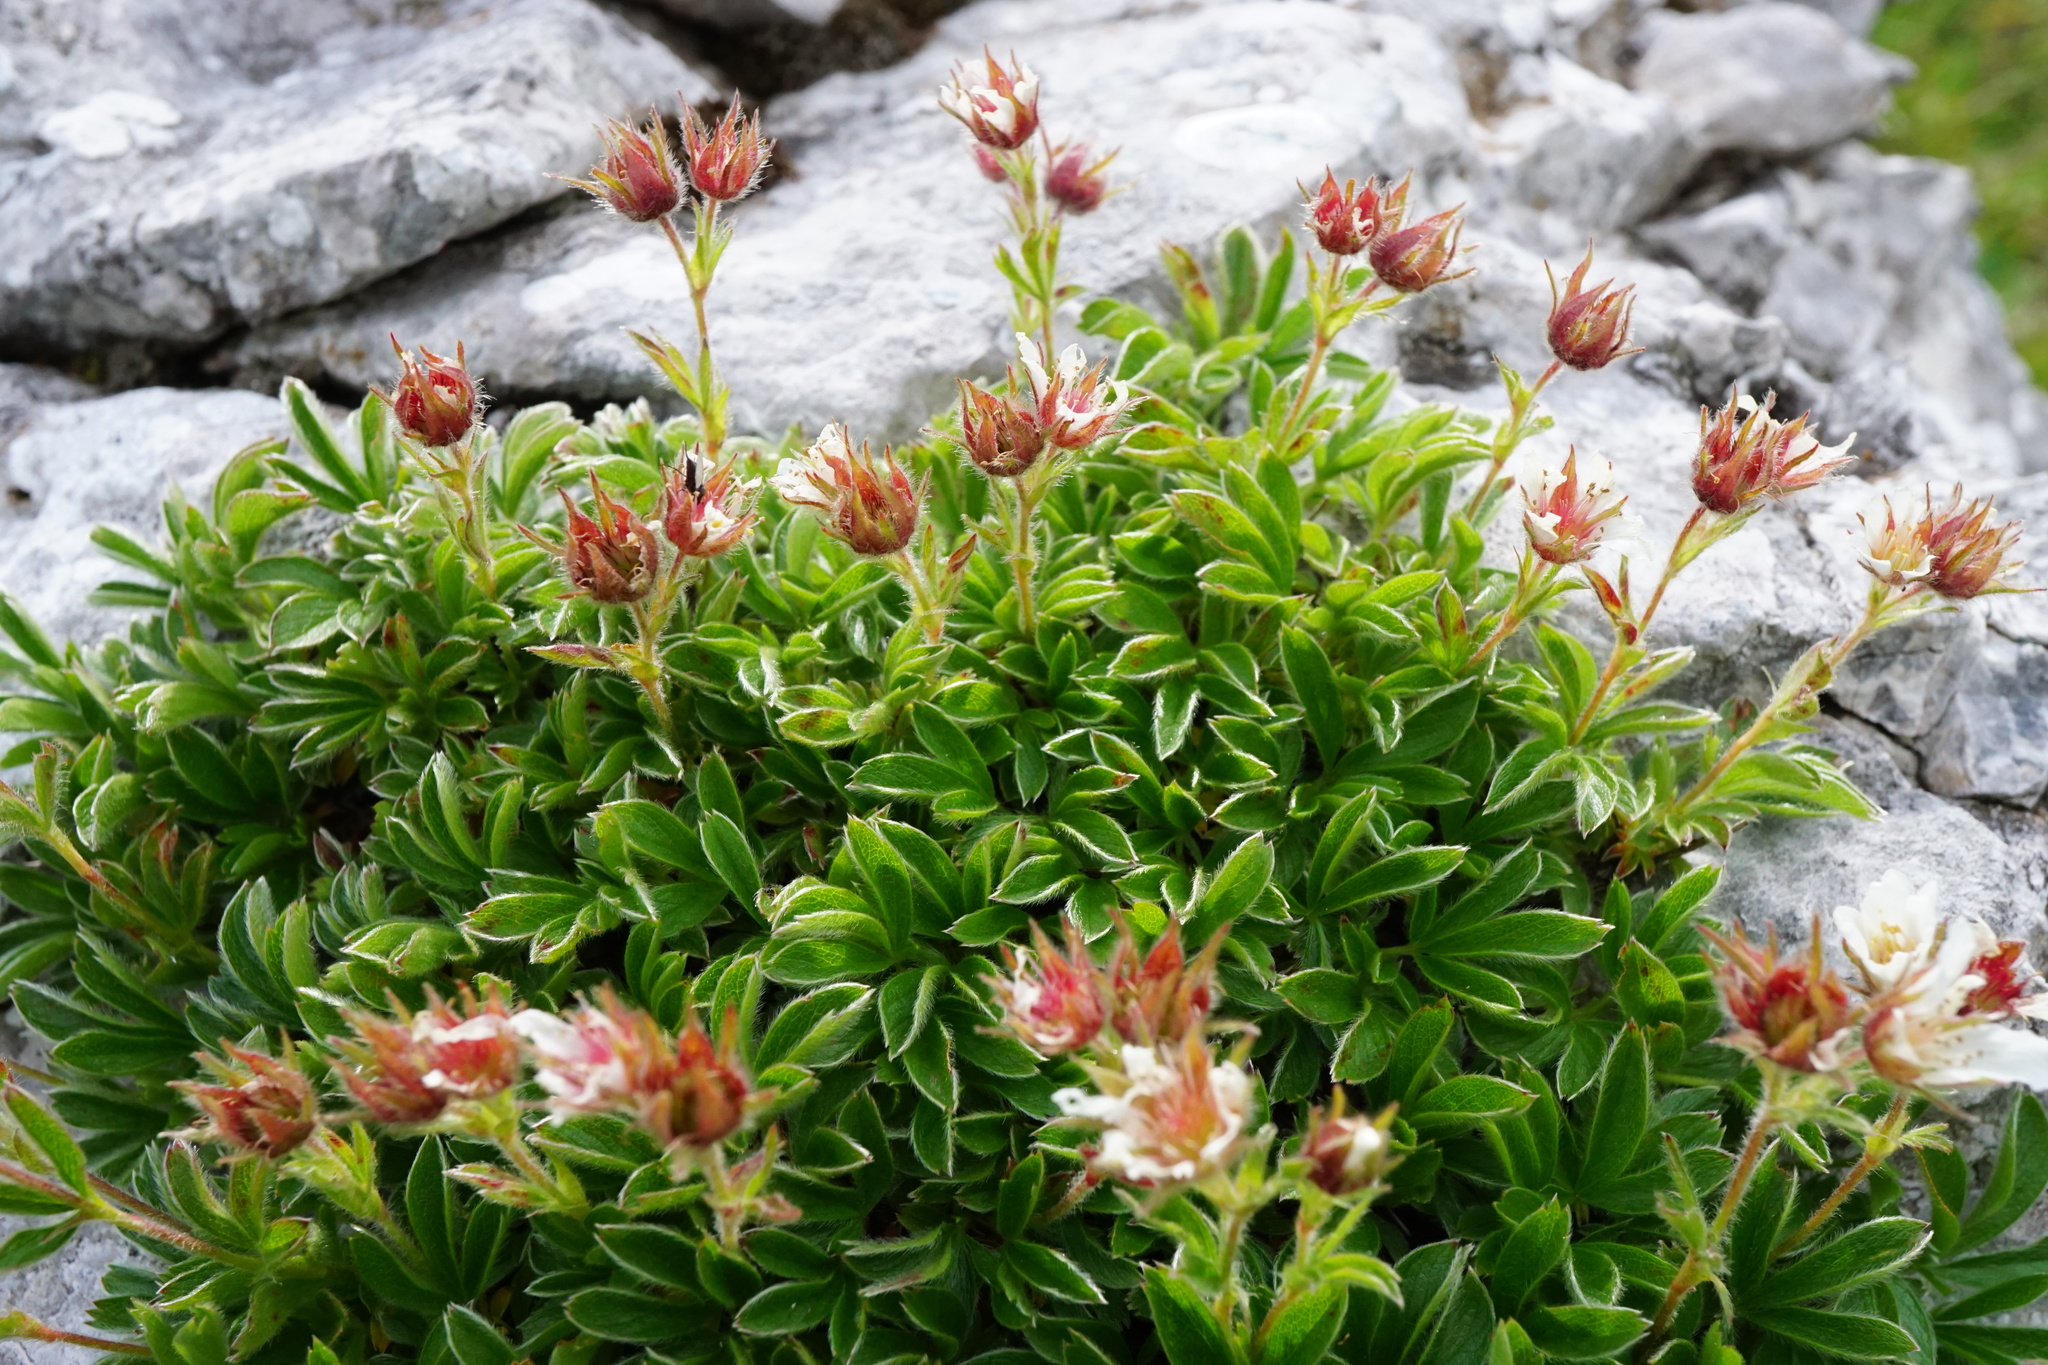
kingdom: Plantae
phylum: Tracheophyta
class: Magnoliopsida
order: Rosales
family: Rosaceae
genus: Potentilla
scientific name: Potentilla clusiana
